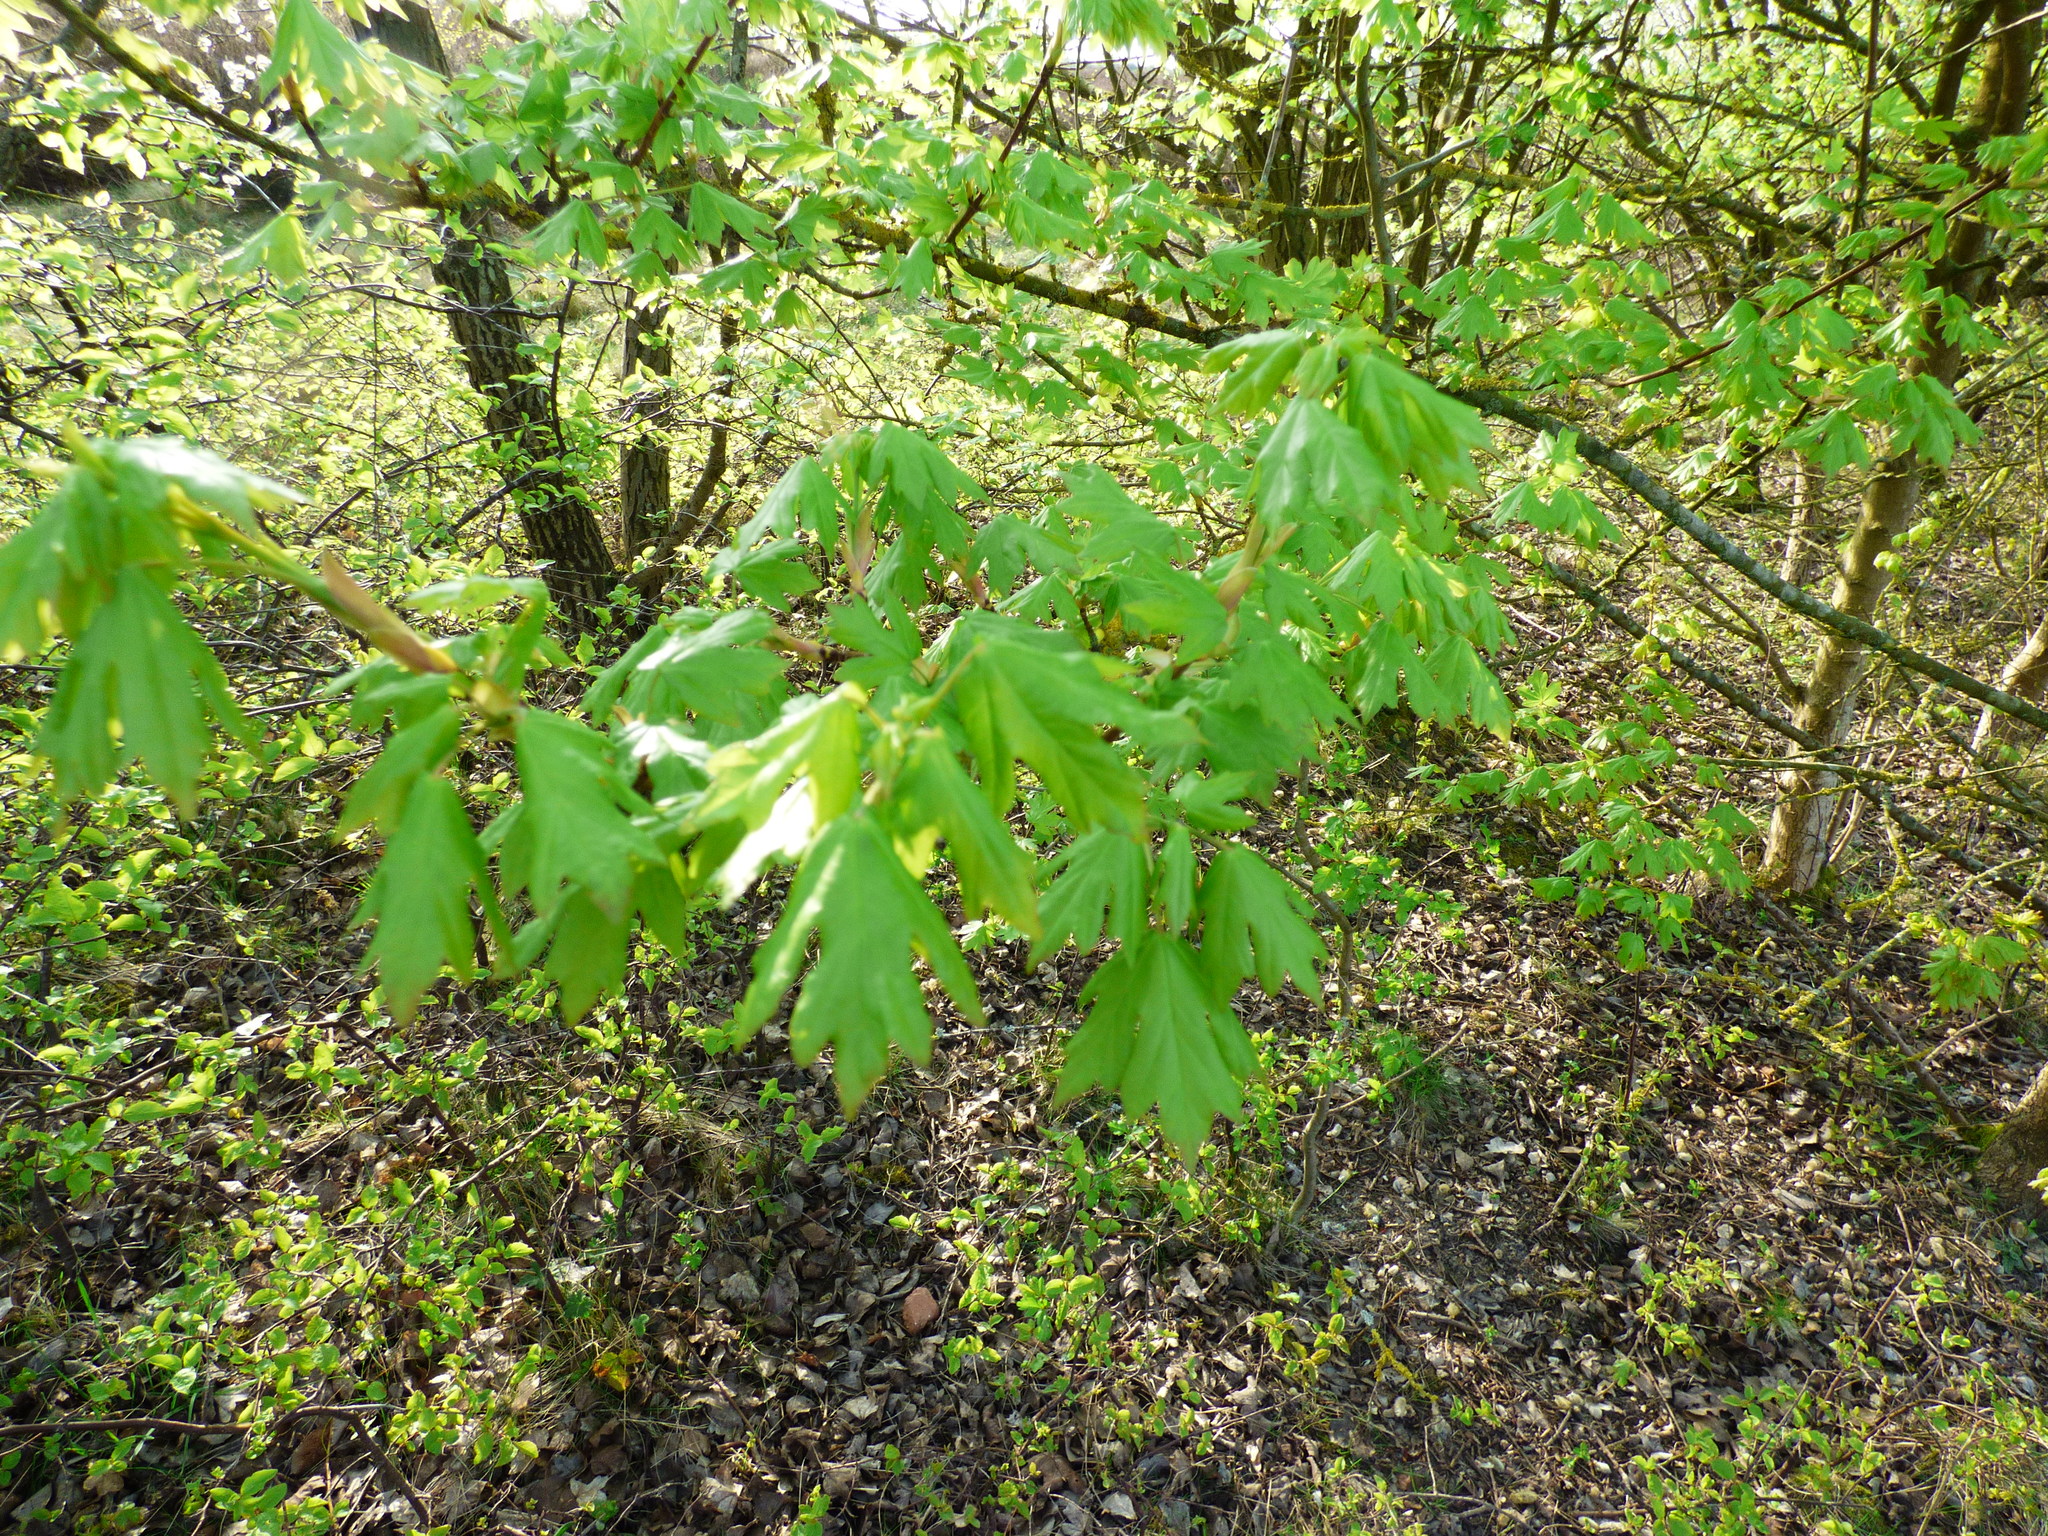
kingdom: Plantae
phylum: Tracheophyta
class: Magnoliopsida
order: Sapindales
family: Sapindaceae
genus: Acer
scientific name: Acer campestre
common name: Field maple
